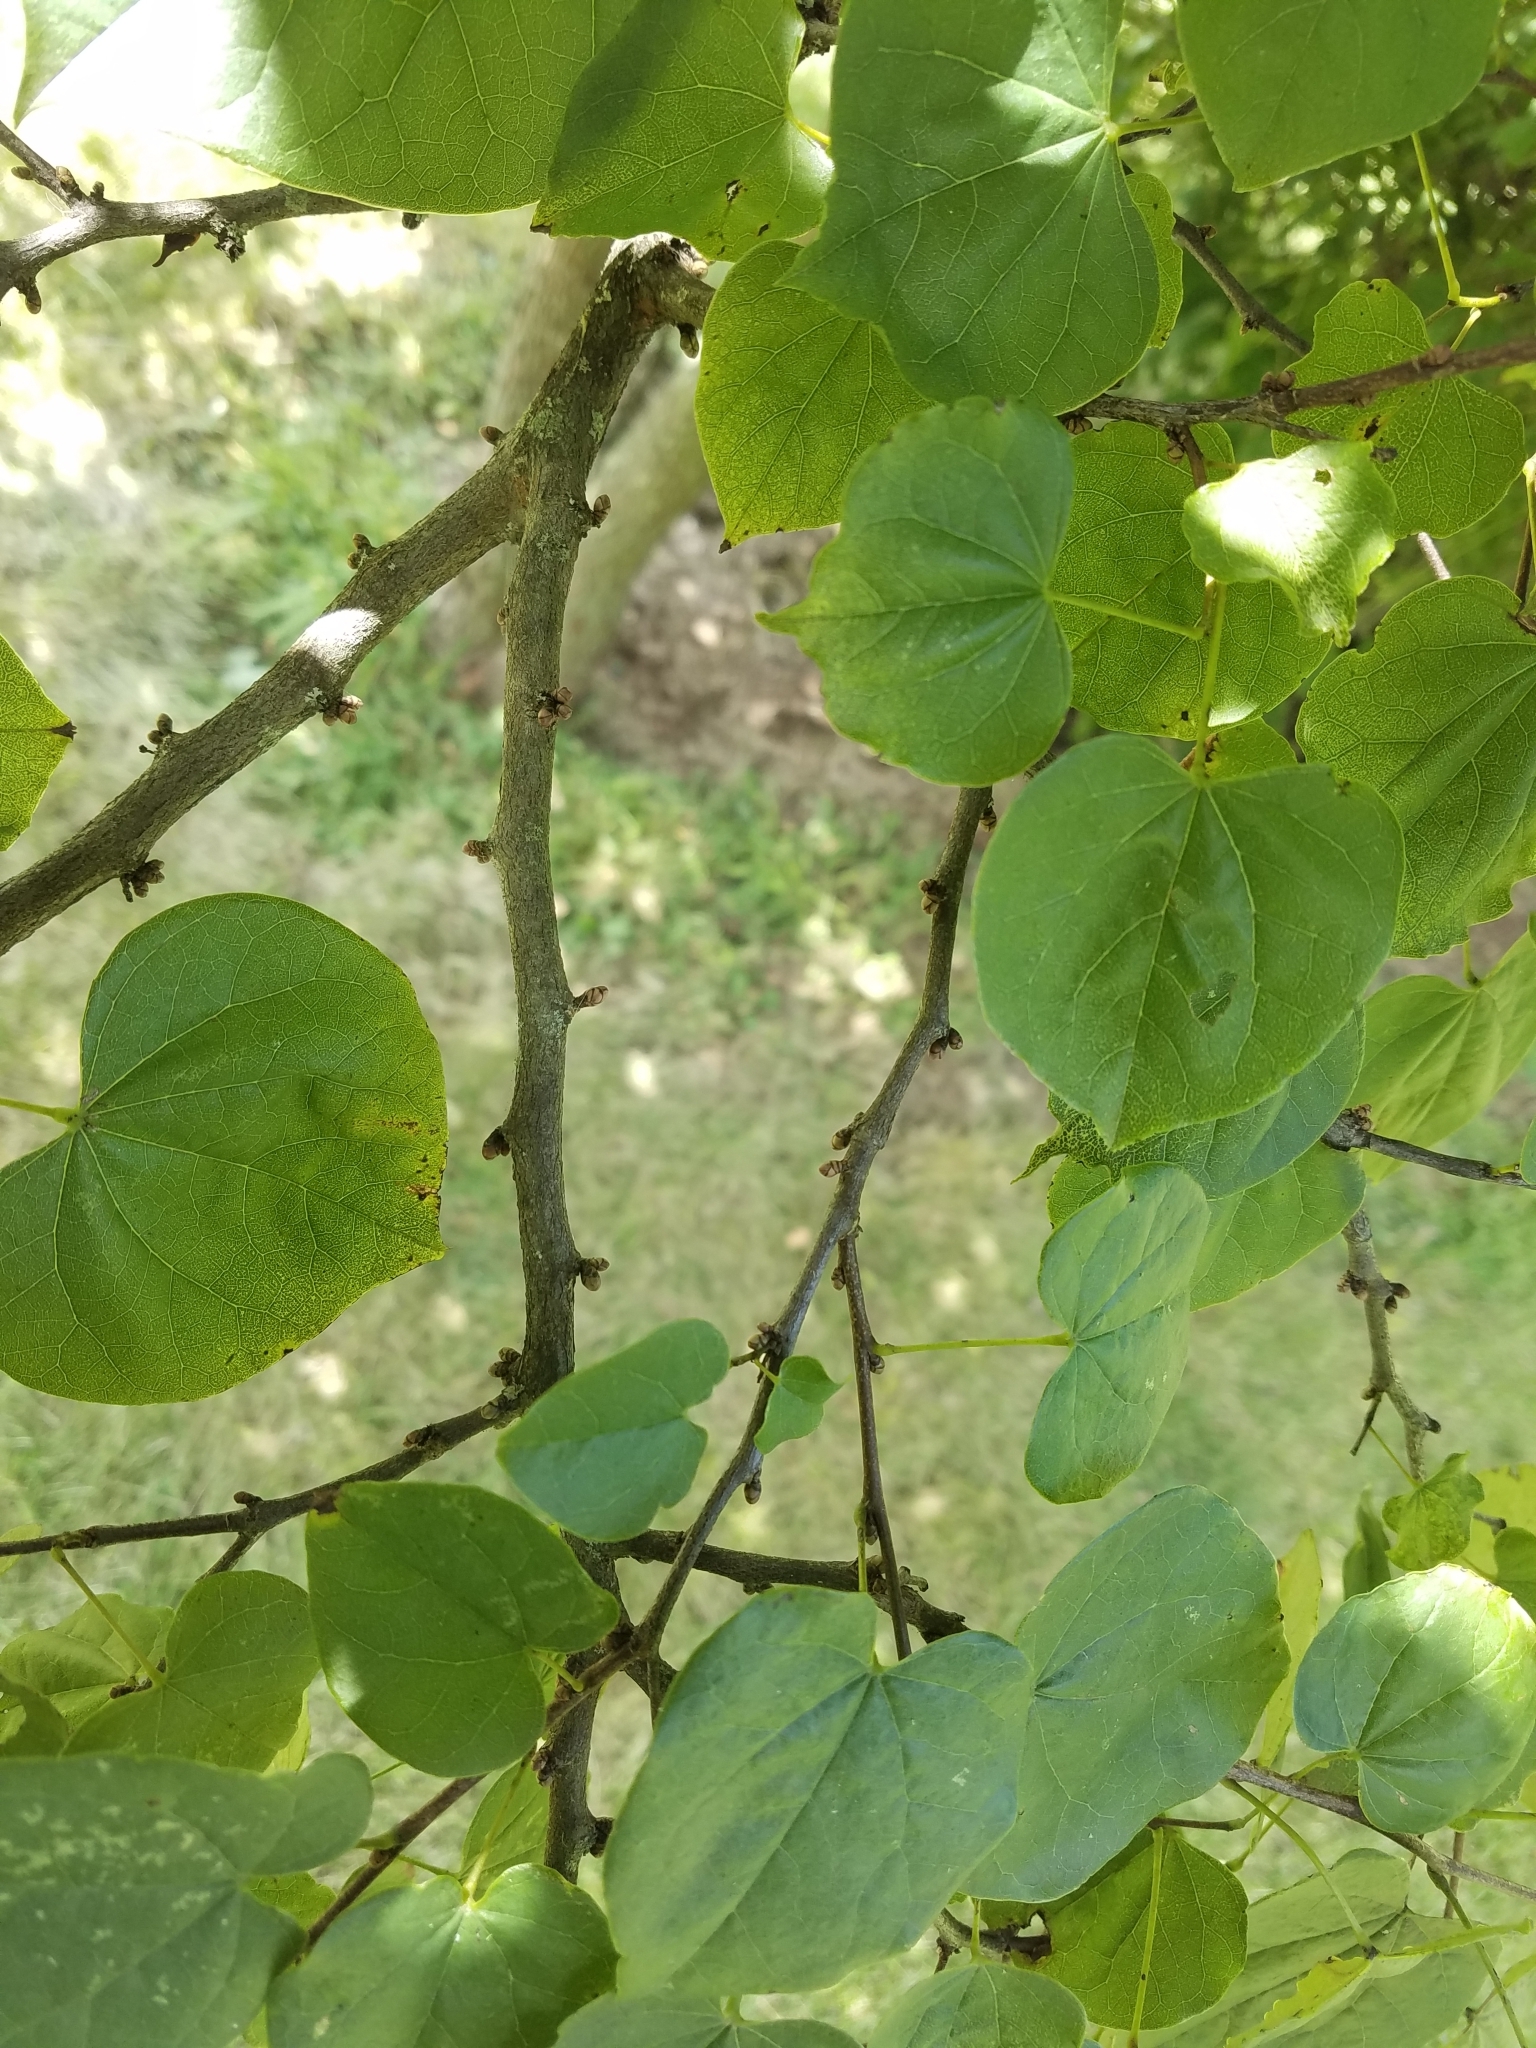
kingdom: Plantae
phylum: Tracheophyta
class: Magnoliopsida
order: Fabales
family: Fabaceae
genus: Cercis
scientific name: Cercis canadensis
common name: Eastern redbud
